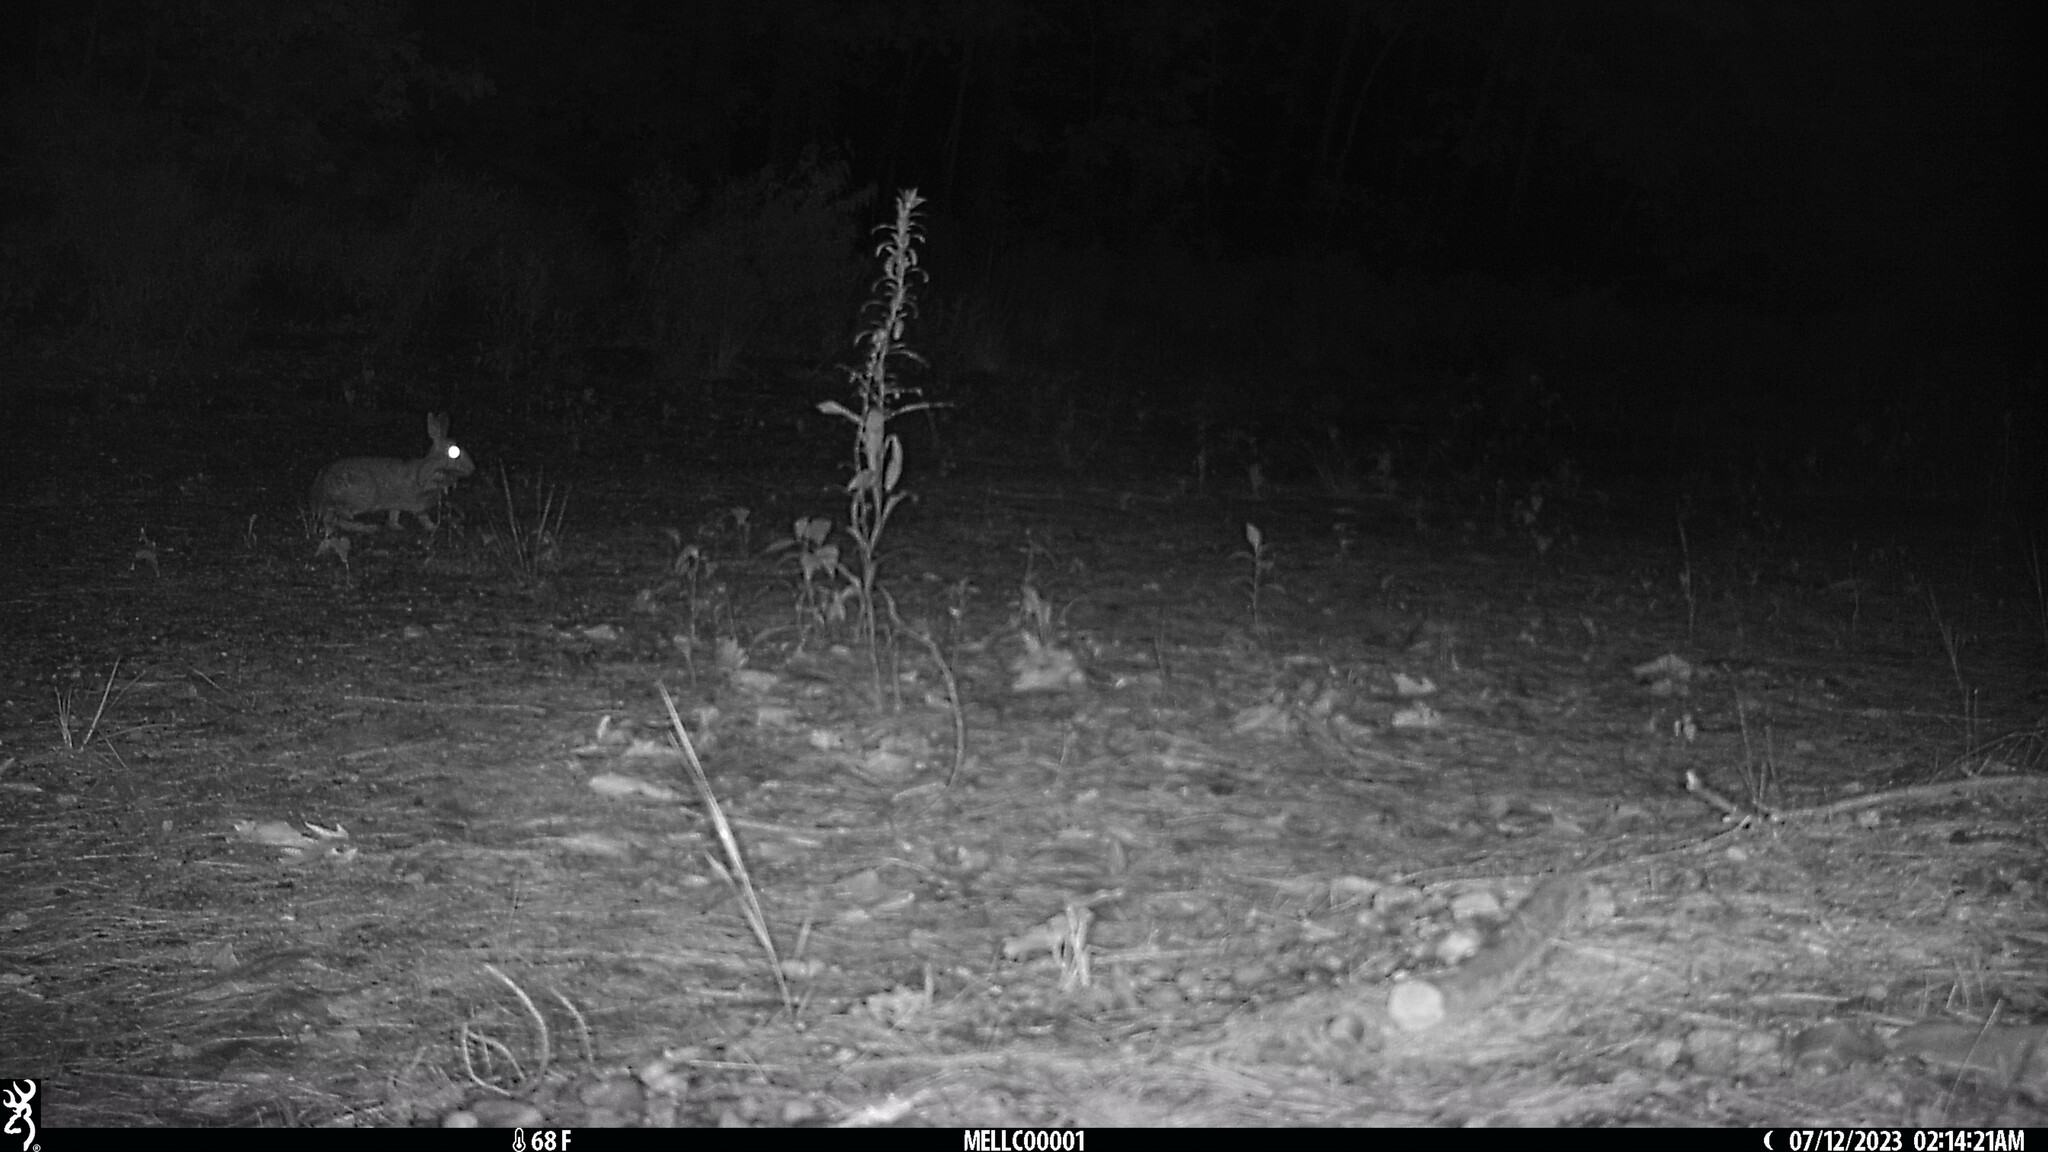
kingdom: Animalia
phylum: Chordata
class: Mammalia
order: Lagomorpha
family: Leporidae
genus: Sylvilagus
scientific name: Sylvilagus floridanus
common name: Eastern cottontail
